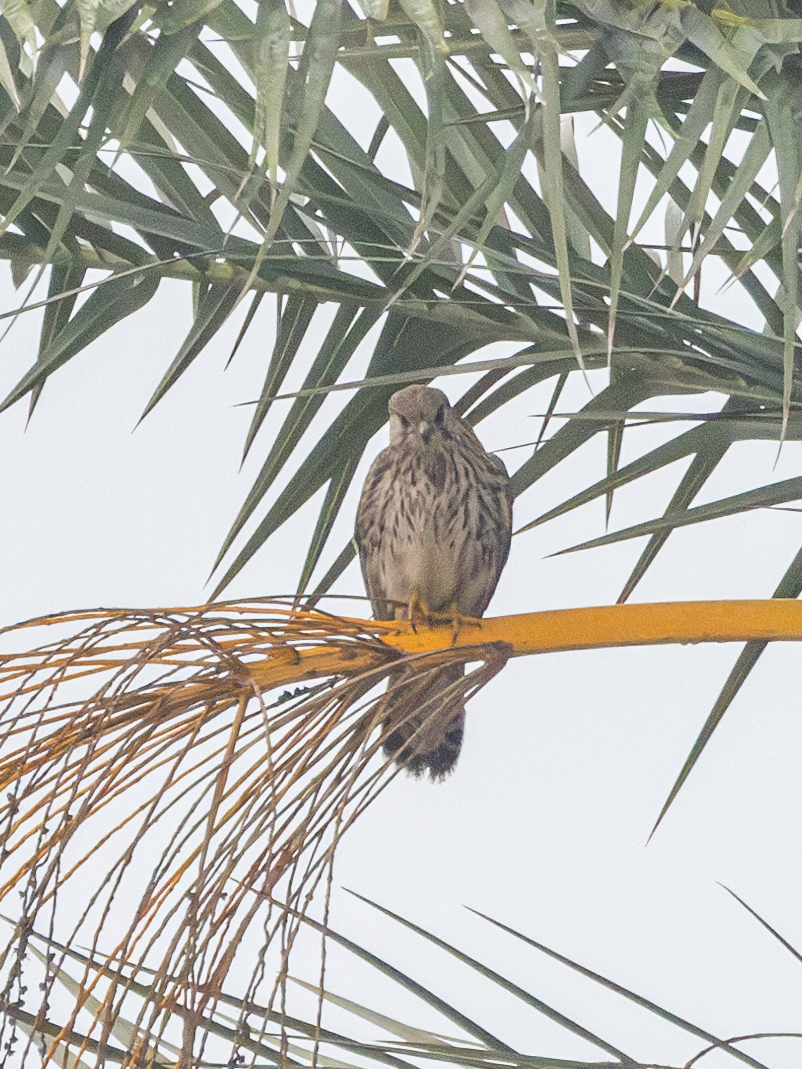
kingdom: Animalia
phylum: Chordata
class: Aves
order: Falconiformes
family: Falconidae
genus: Falco
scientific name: Falco tinnunculus
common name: Common kestrel
